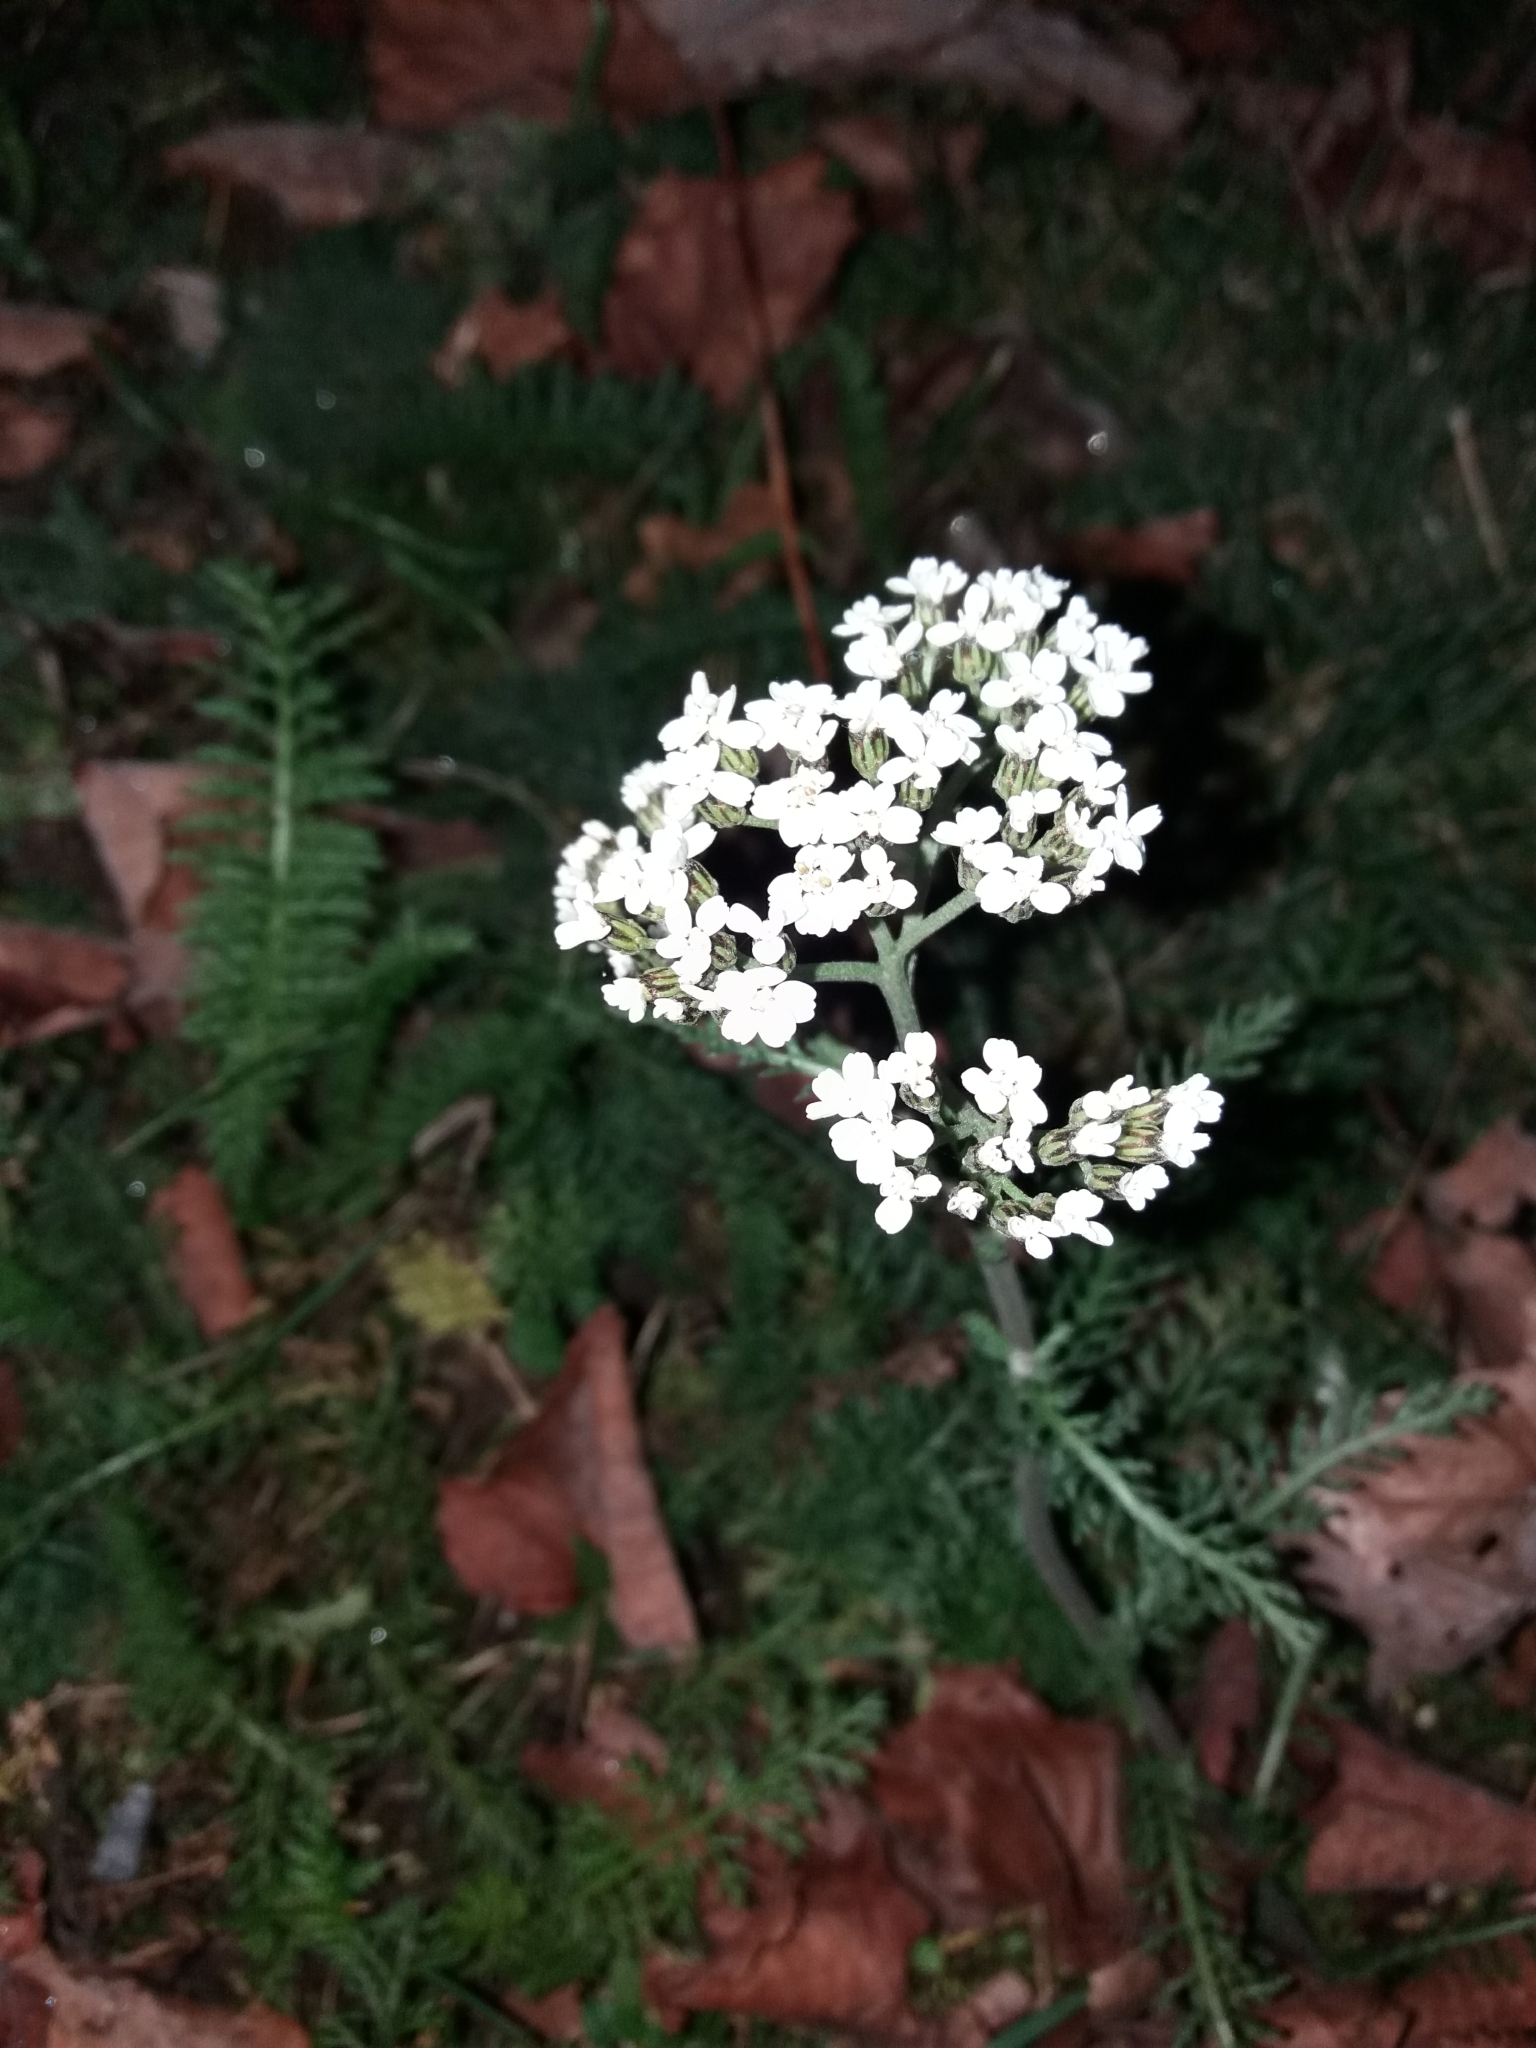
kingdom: Plantae
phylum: Tracheophyta
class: Magnoliopsida
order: Asterales
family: Asteraceae
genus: Achillea
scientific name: Achillea millefolium
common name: Yarrow
